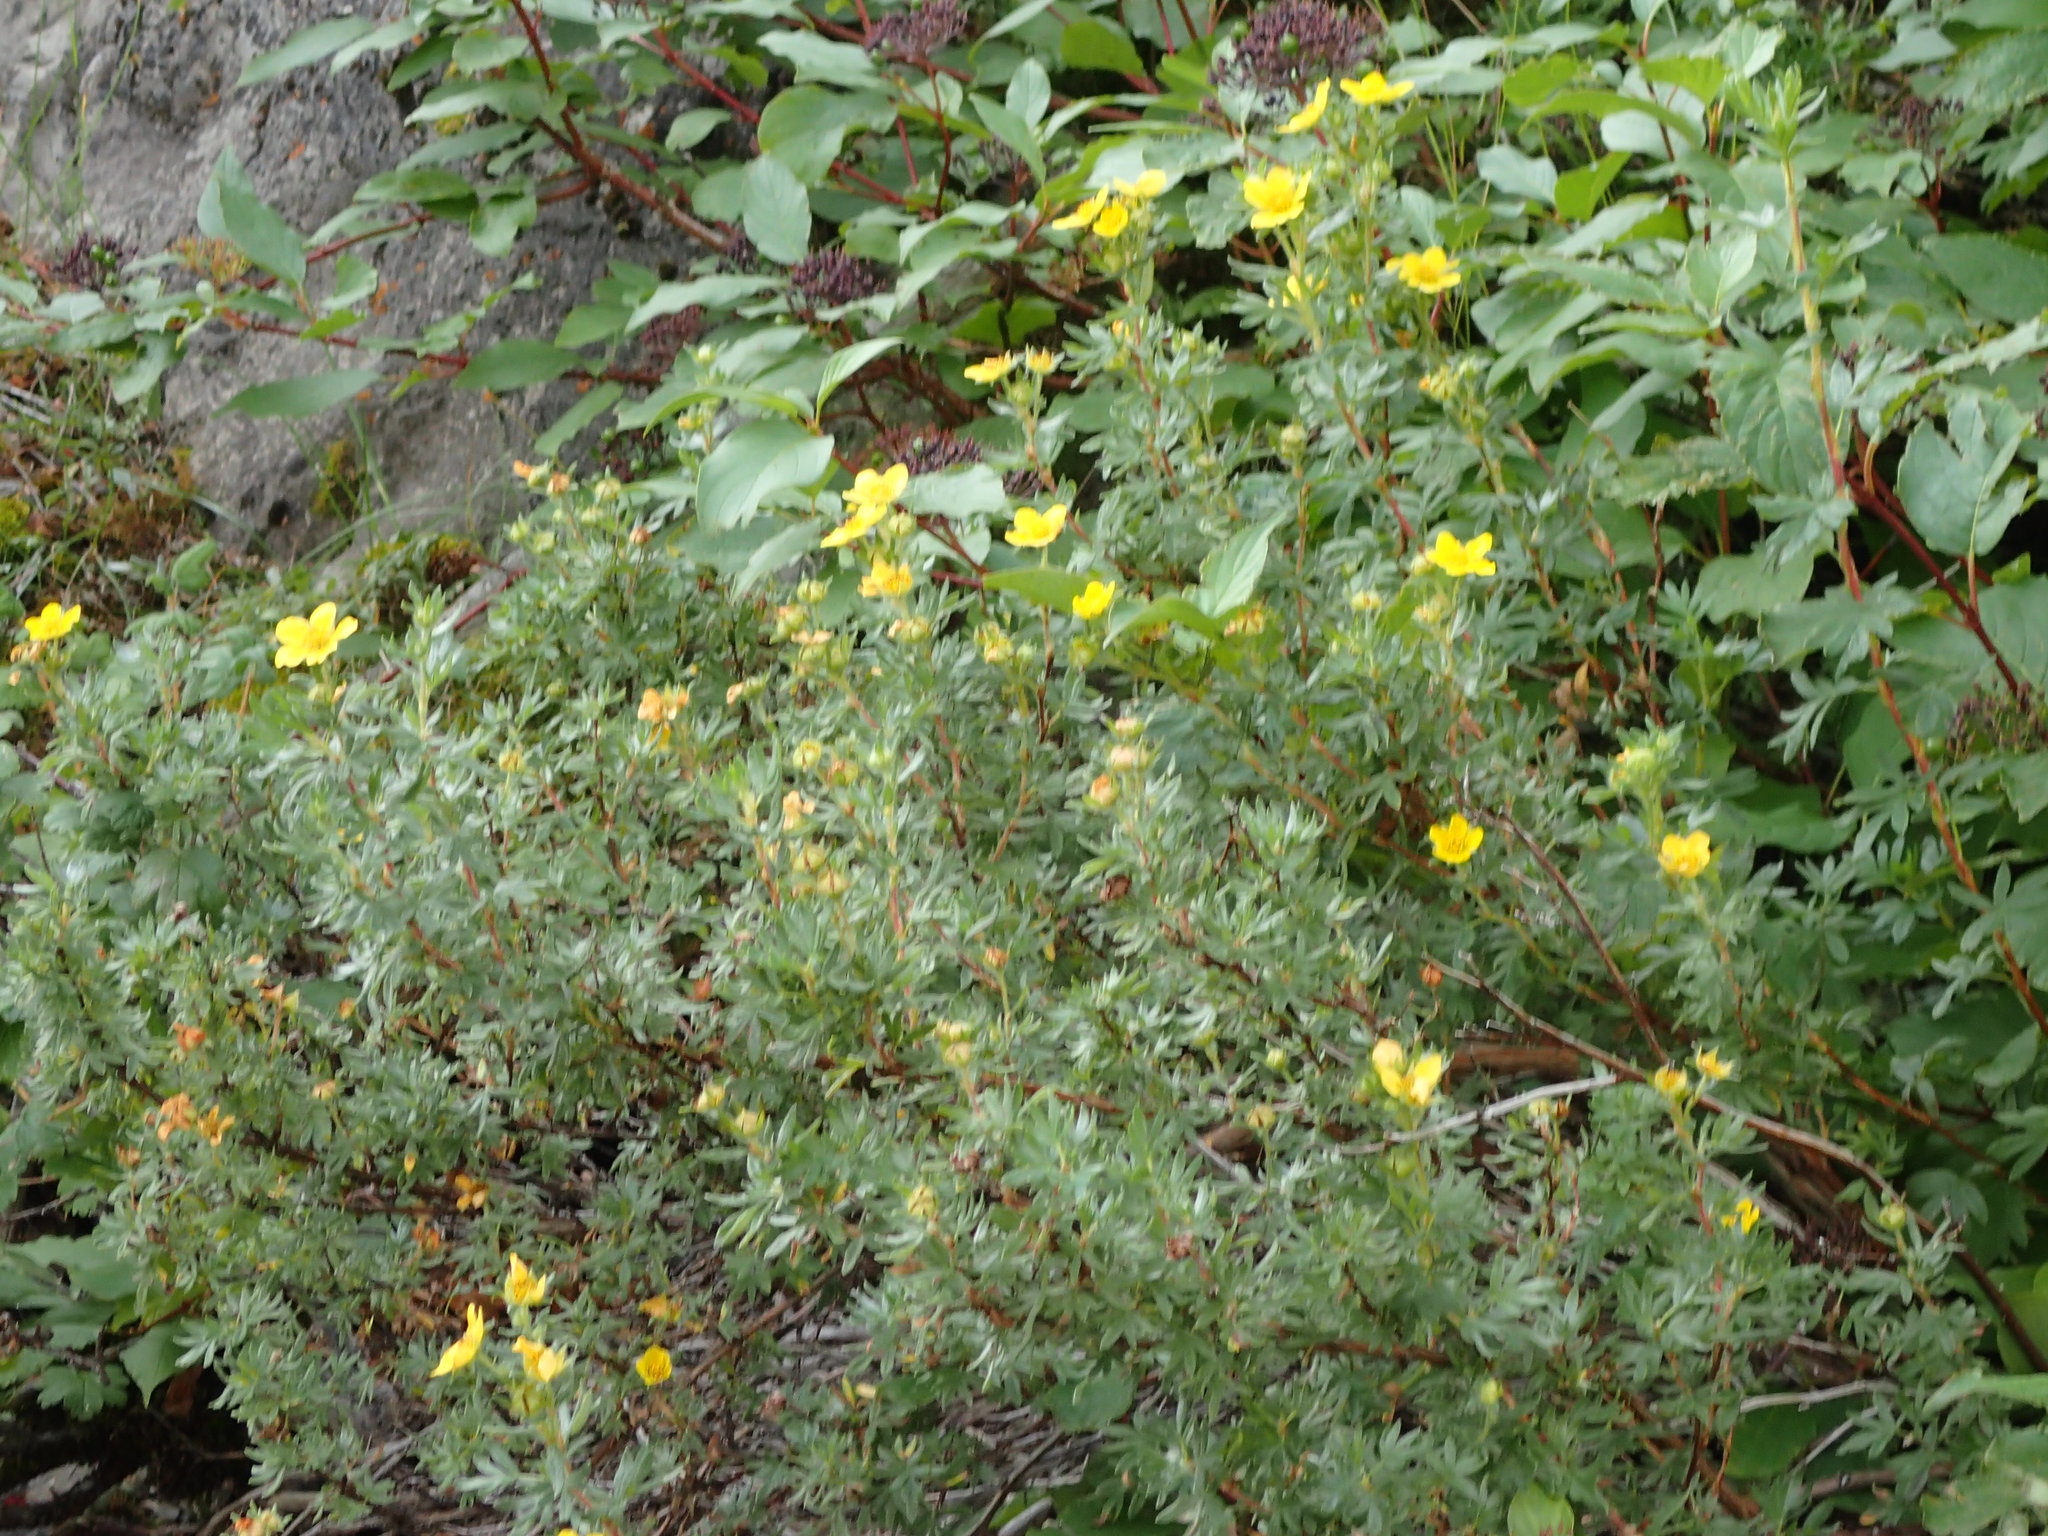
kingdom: Plantae
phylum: Tracheophyta
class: Magnoliopsida
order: Rosales
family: Rosaceae
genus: Dasiphora
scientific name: Dasiphora fruticosa
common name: Shrubby cinquefoil
